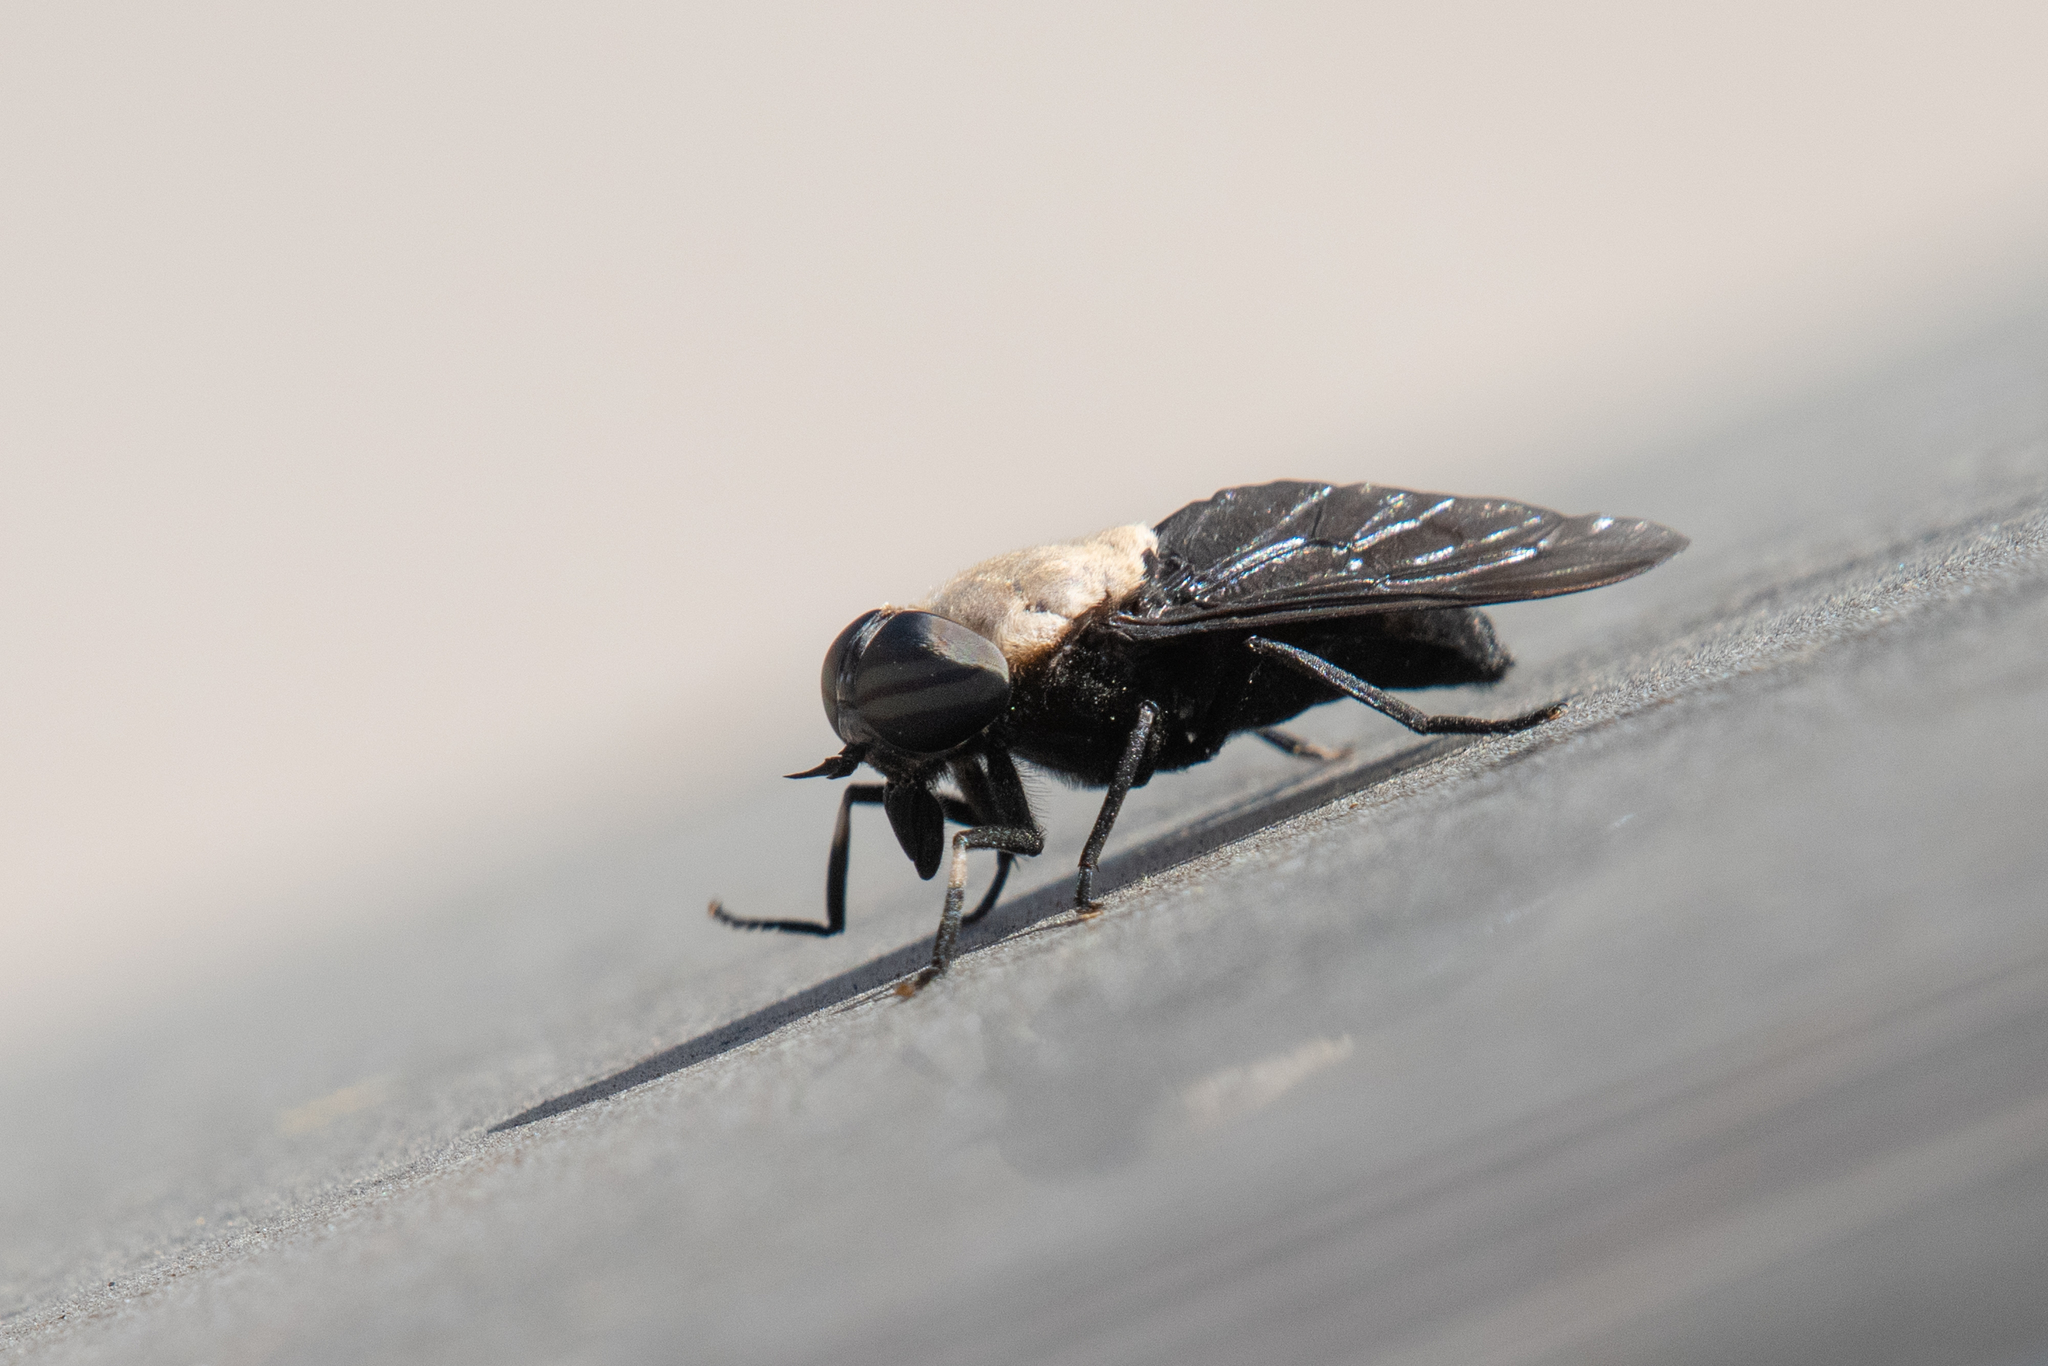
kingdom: Animalia
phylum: Arthropoda
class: Insecta
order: Diptera
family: Tabanidae
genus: Tabanus
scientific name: Tabanus punctifer
